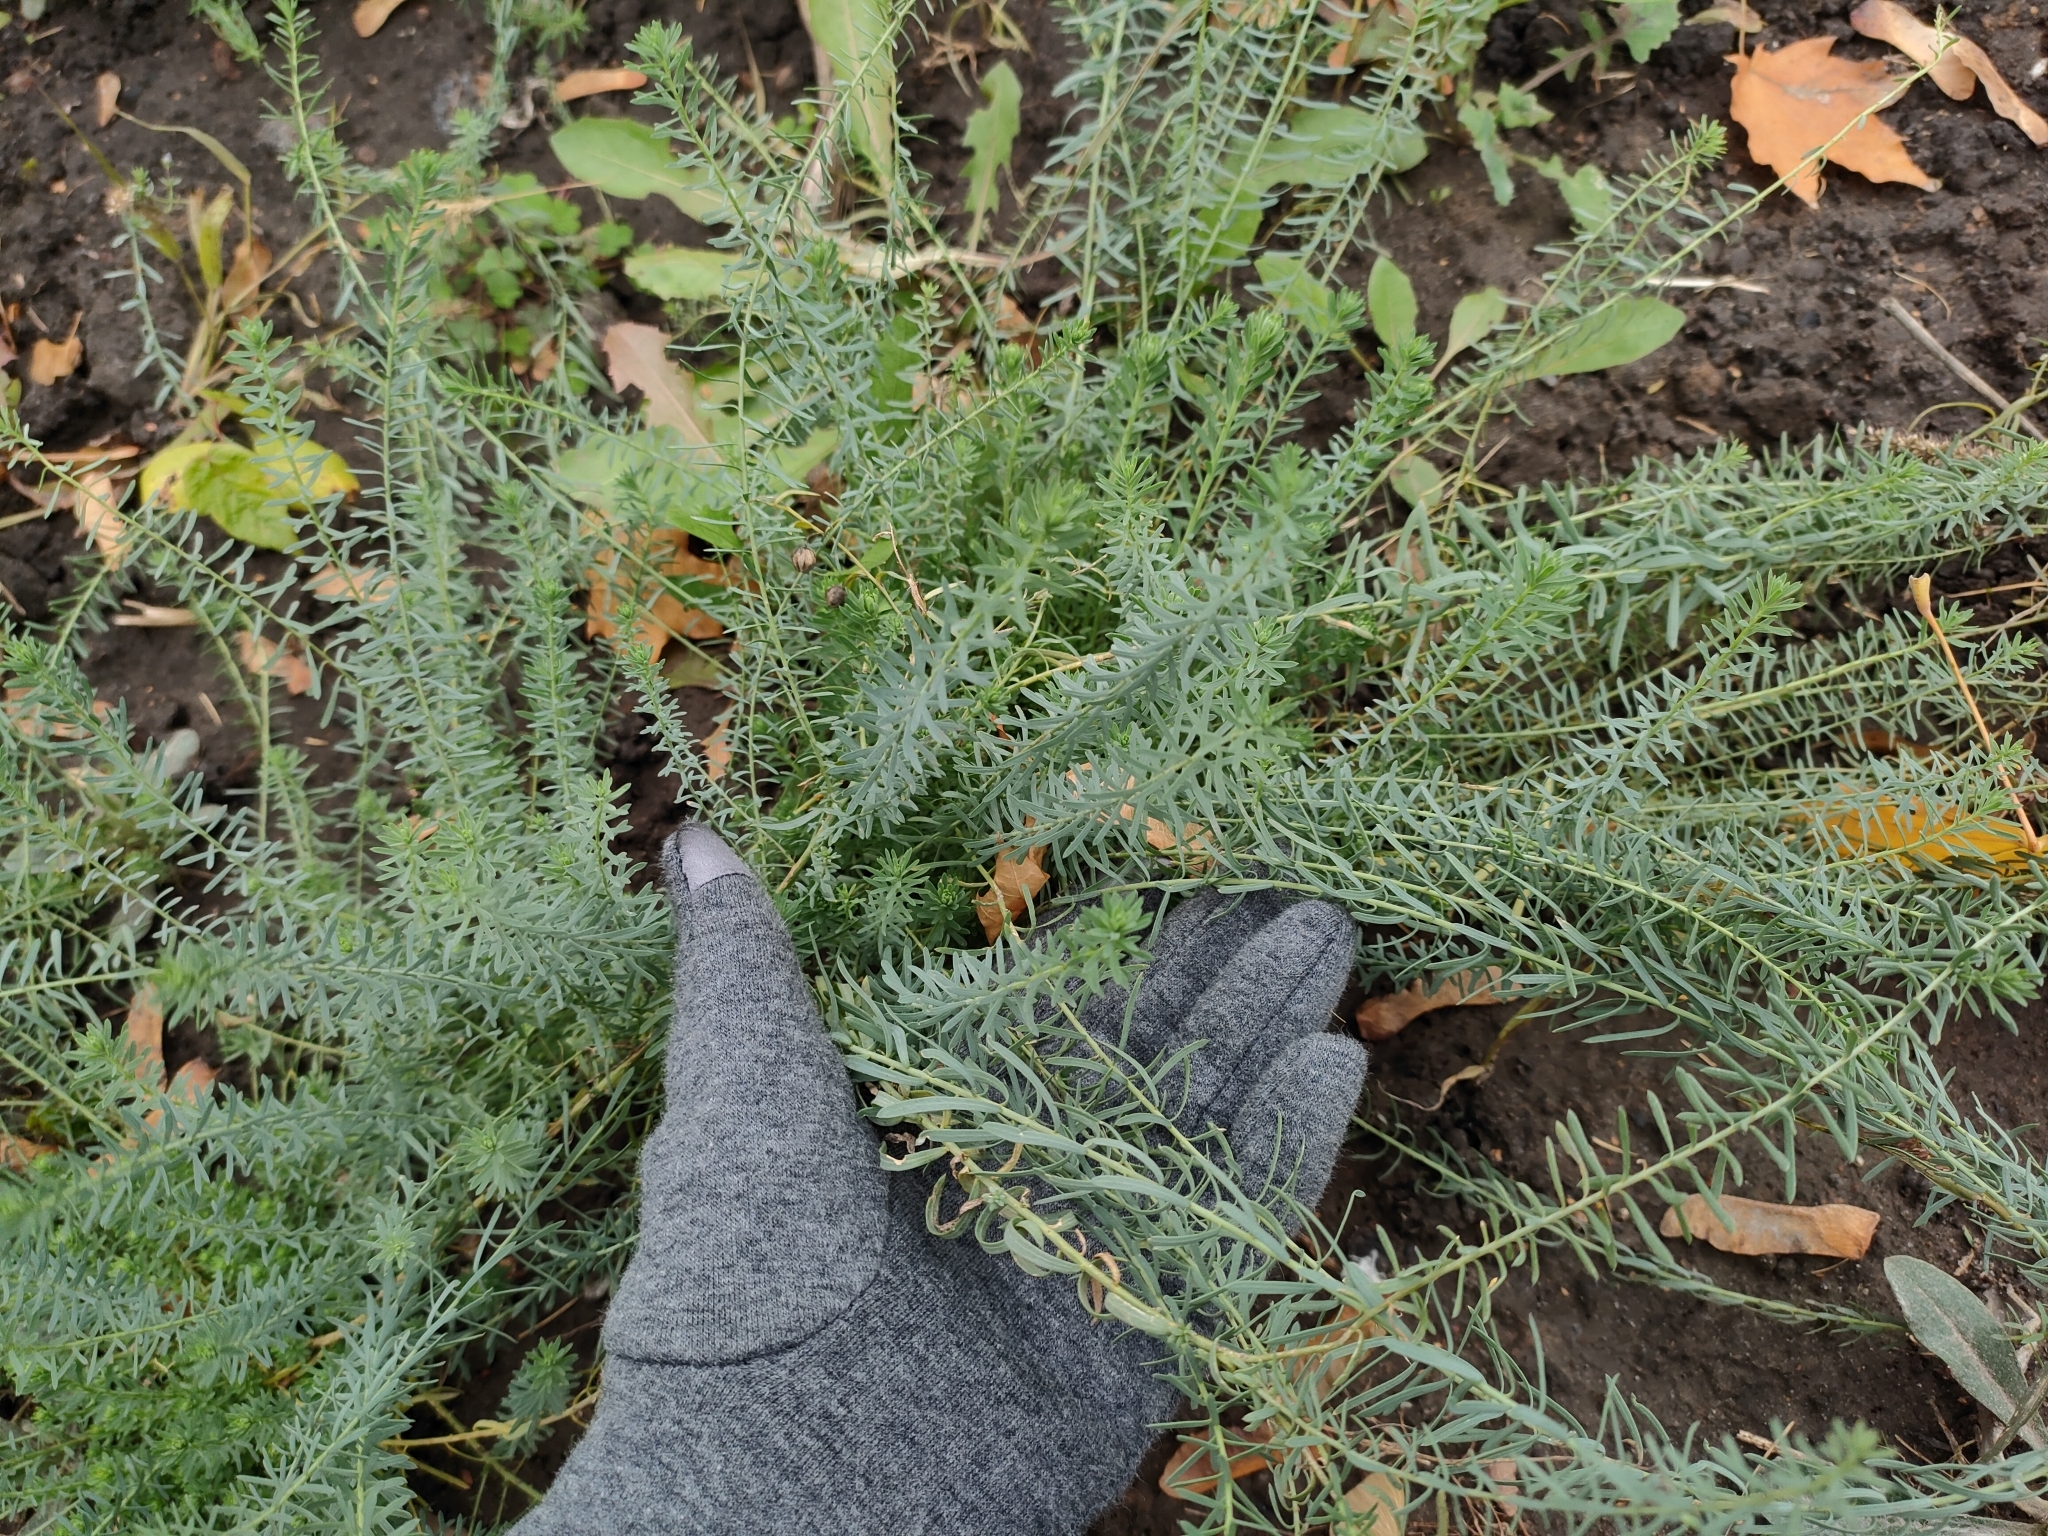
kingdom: Plantae
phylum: Tracheophyta
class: Magnoliopsida
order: Malpighiales
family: Euphorbiaceae
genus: Euphorbia
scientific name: Euphorbia seguieriana
